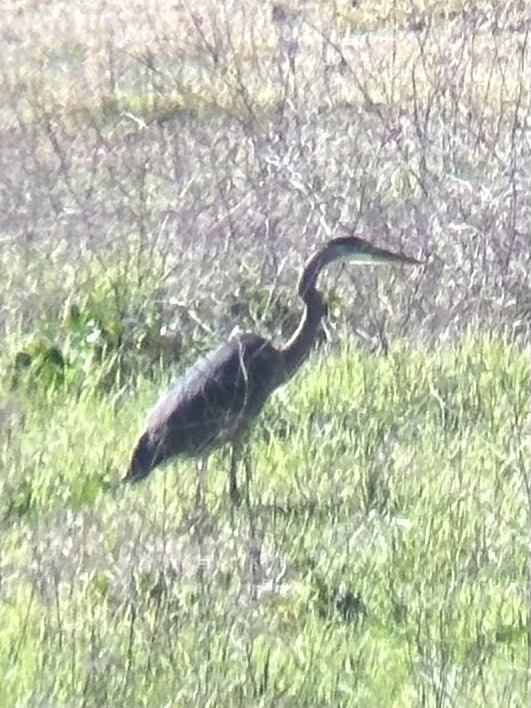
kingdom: Animalia
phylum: Chordata
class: Aves
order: Pelecaniformes
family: Ardeidae
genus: Ardea
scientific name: Ardea herodias
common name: Great blue heron
